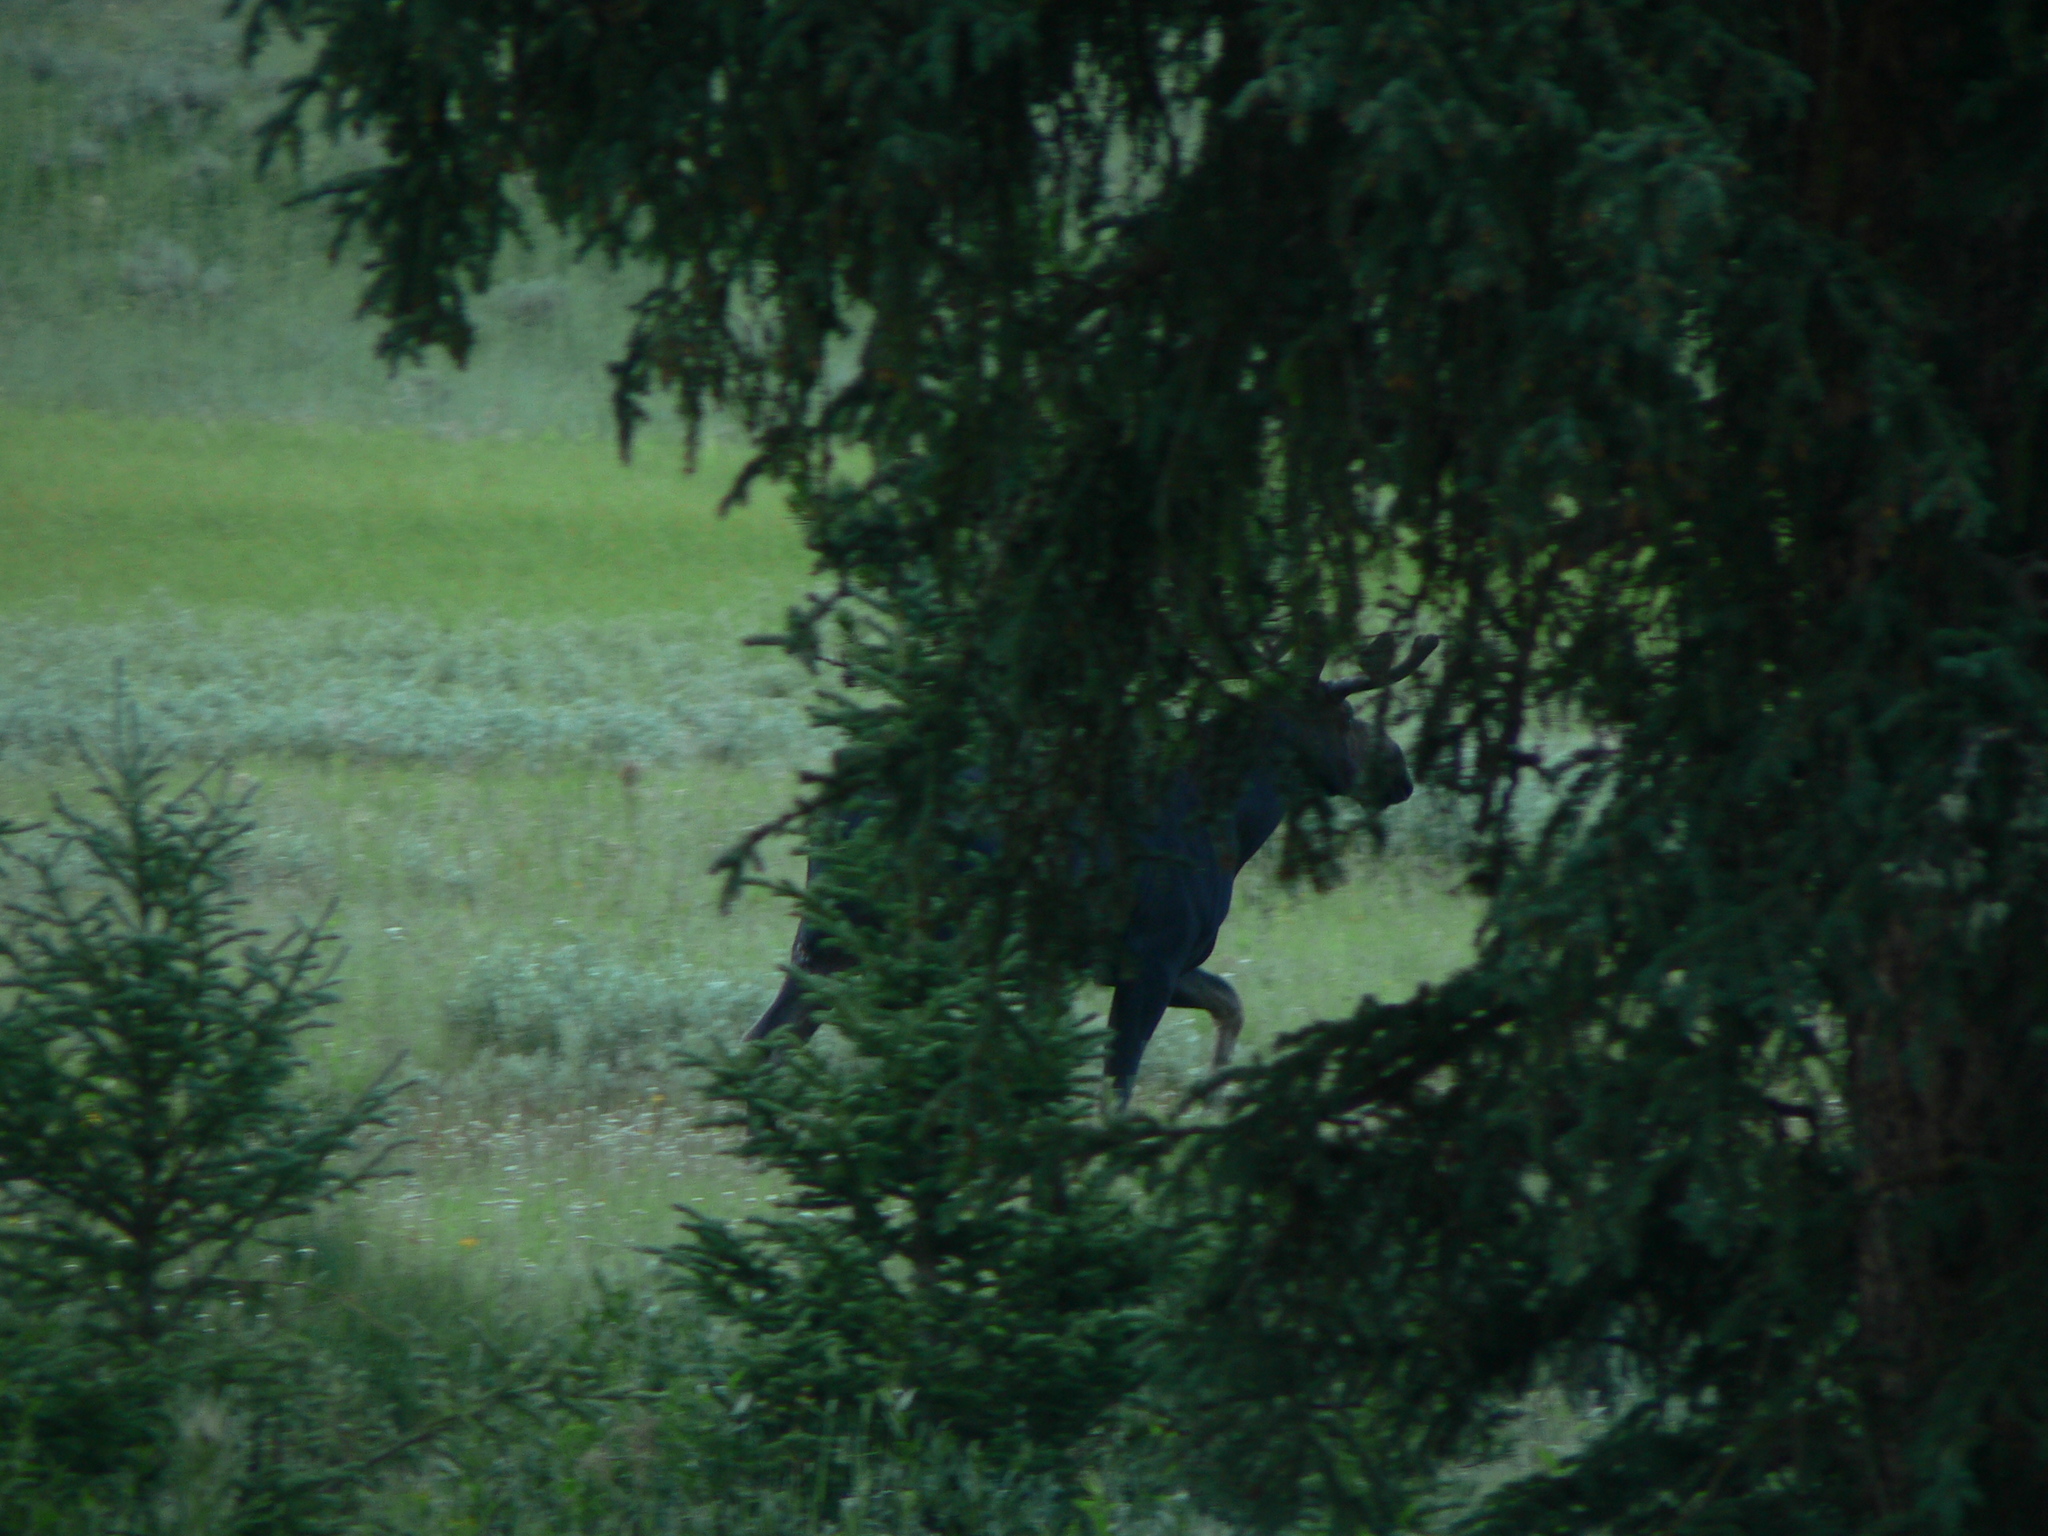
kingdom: Animalia
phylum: Chordata
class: Mammalia
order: Artiodactyla
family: Cervidae
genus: Alces
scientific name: Alces alces
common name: Moose
